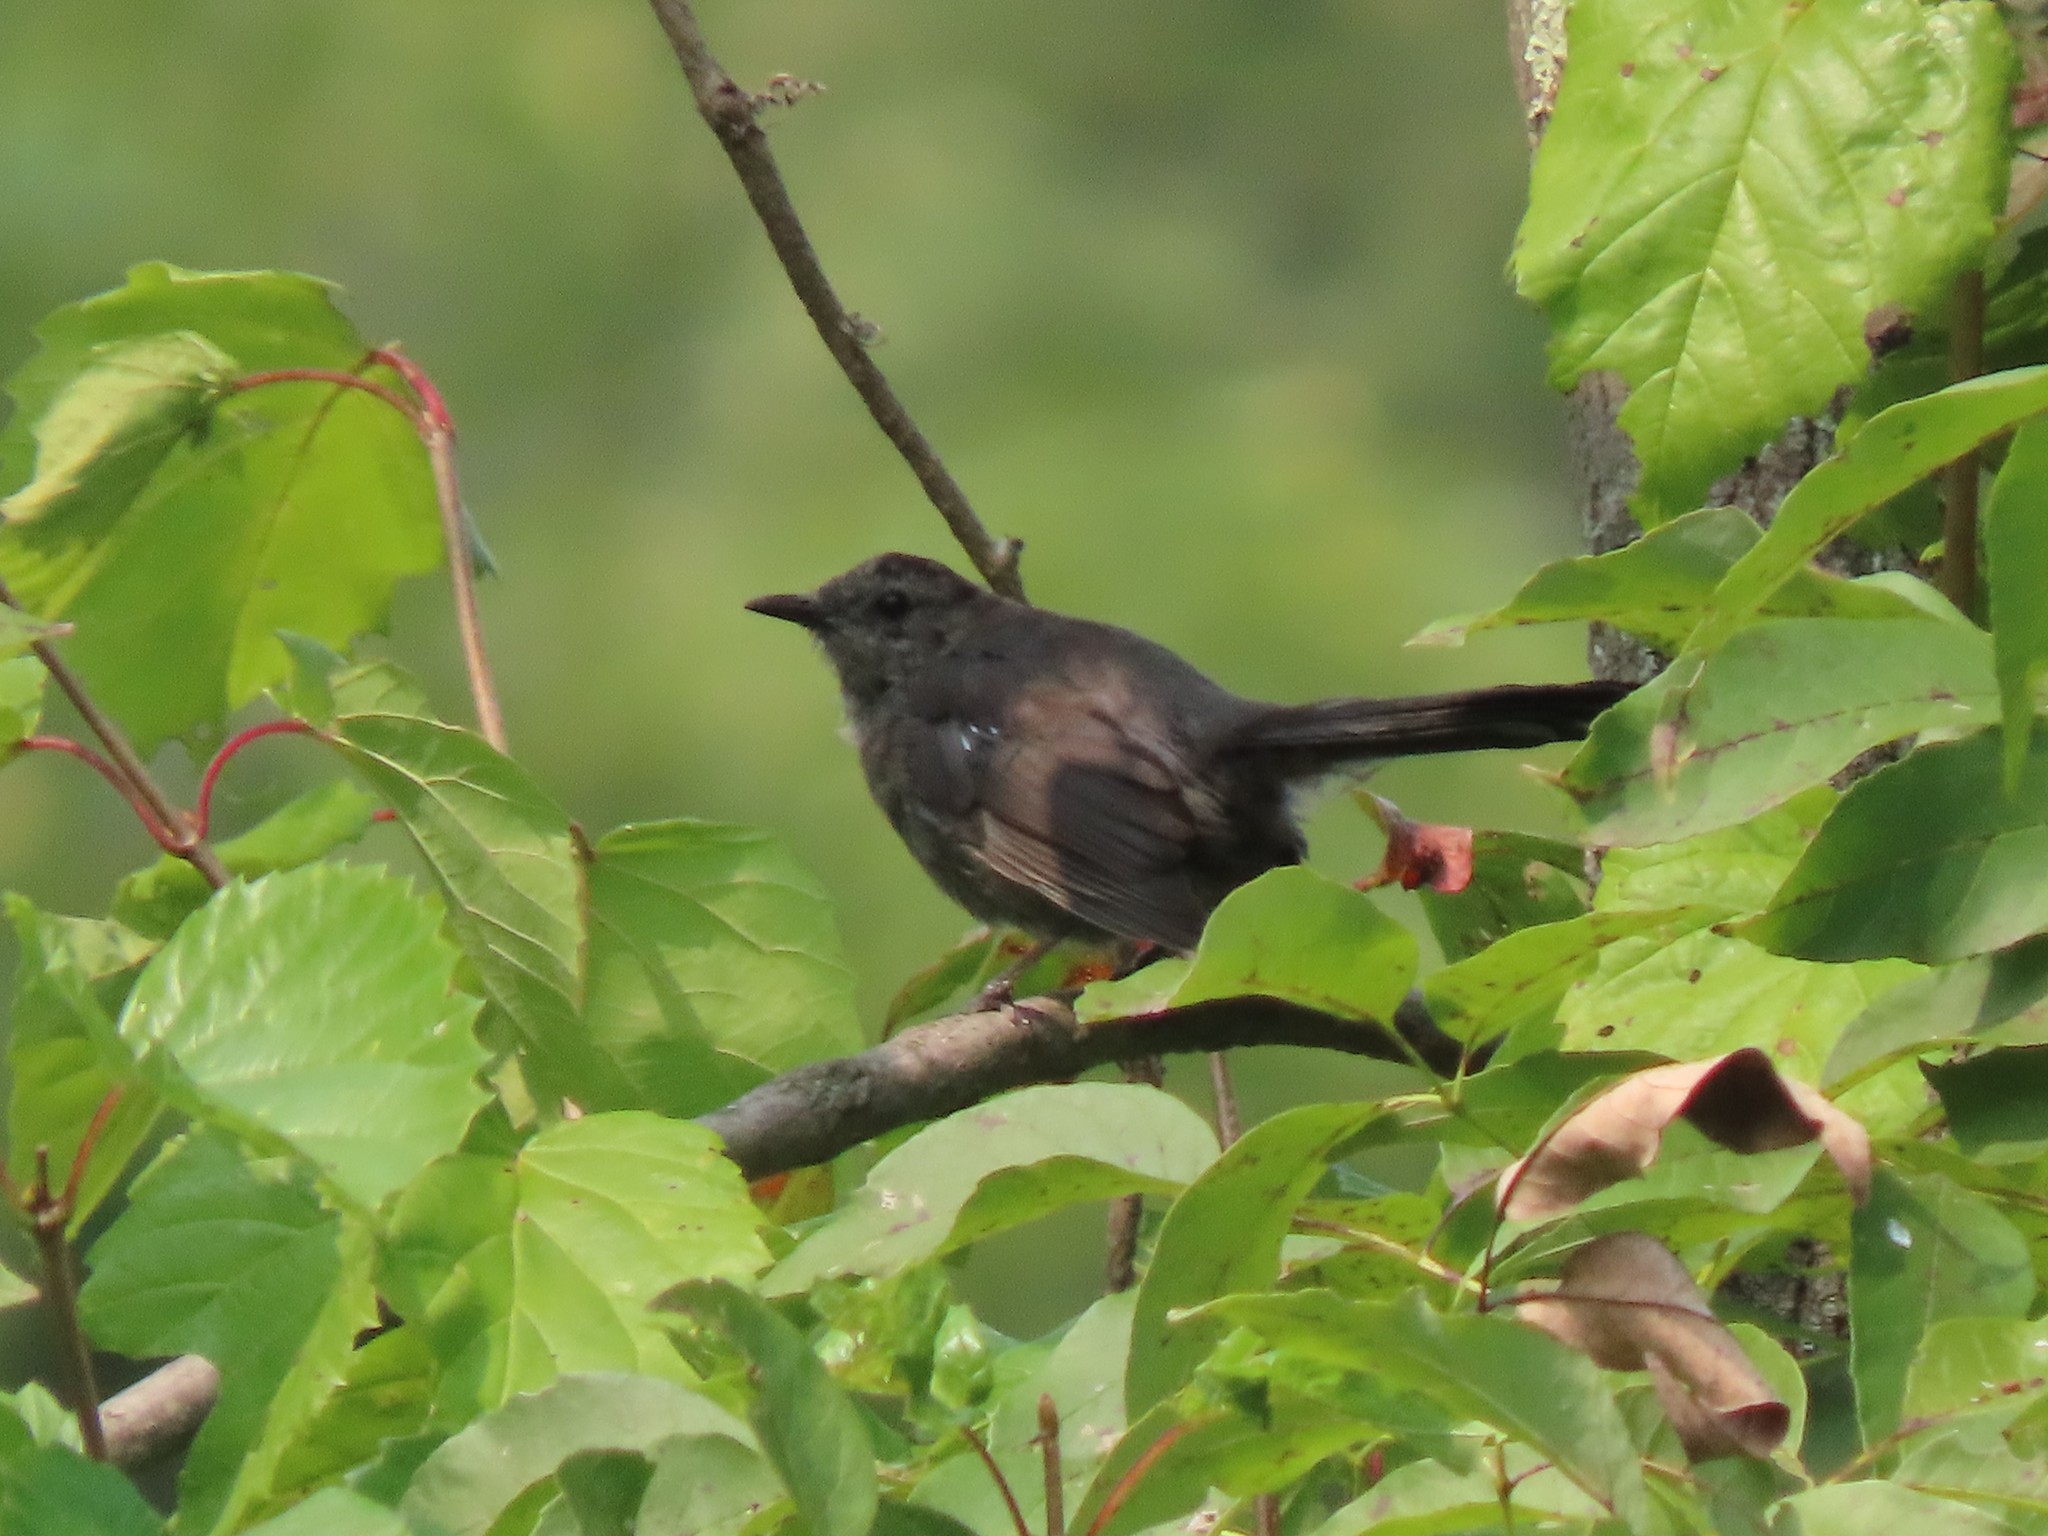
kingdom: Animalia
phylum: Chordata
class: Aves
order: Passeriformes
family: Mimidae
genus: Dumetella
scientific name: Dumetella carolinensis
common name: Gray catbird
